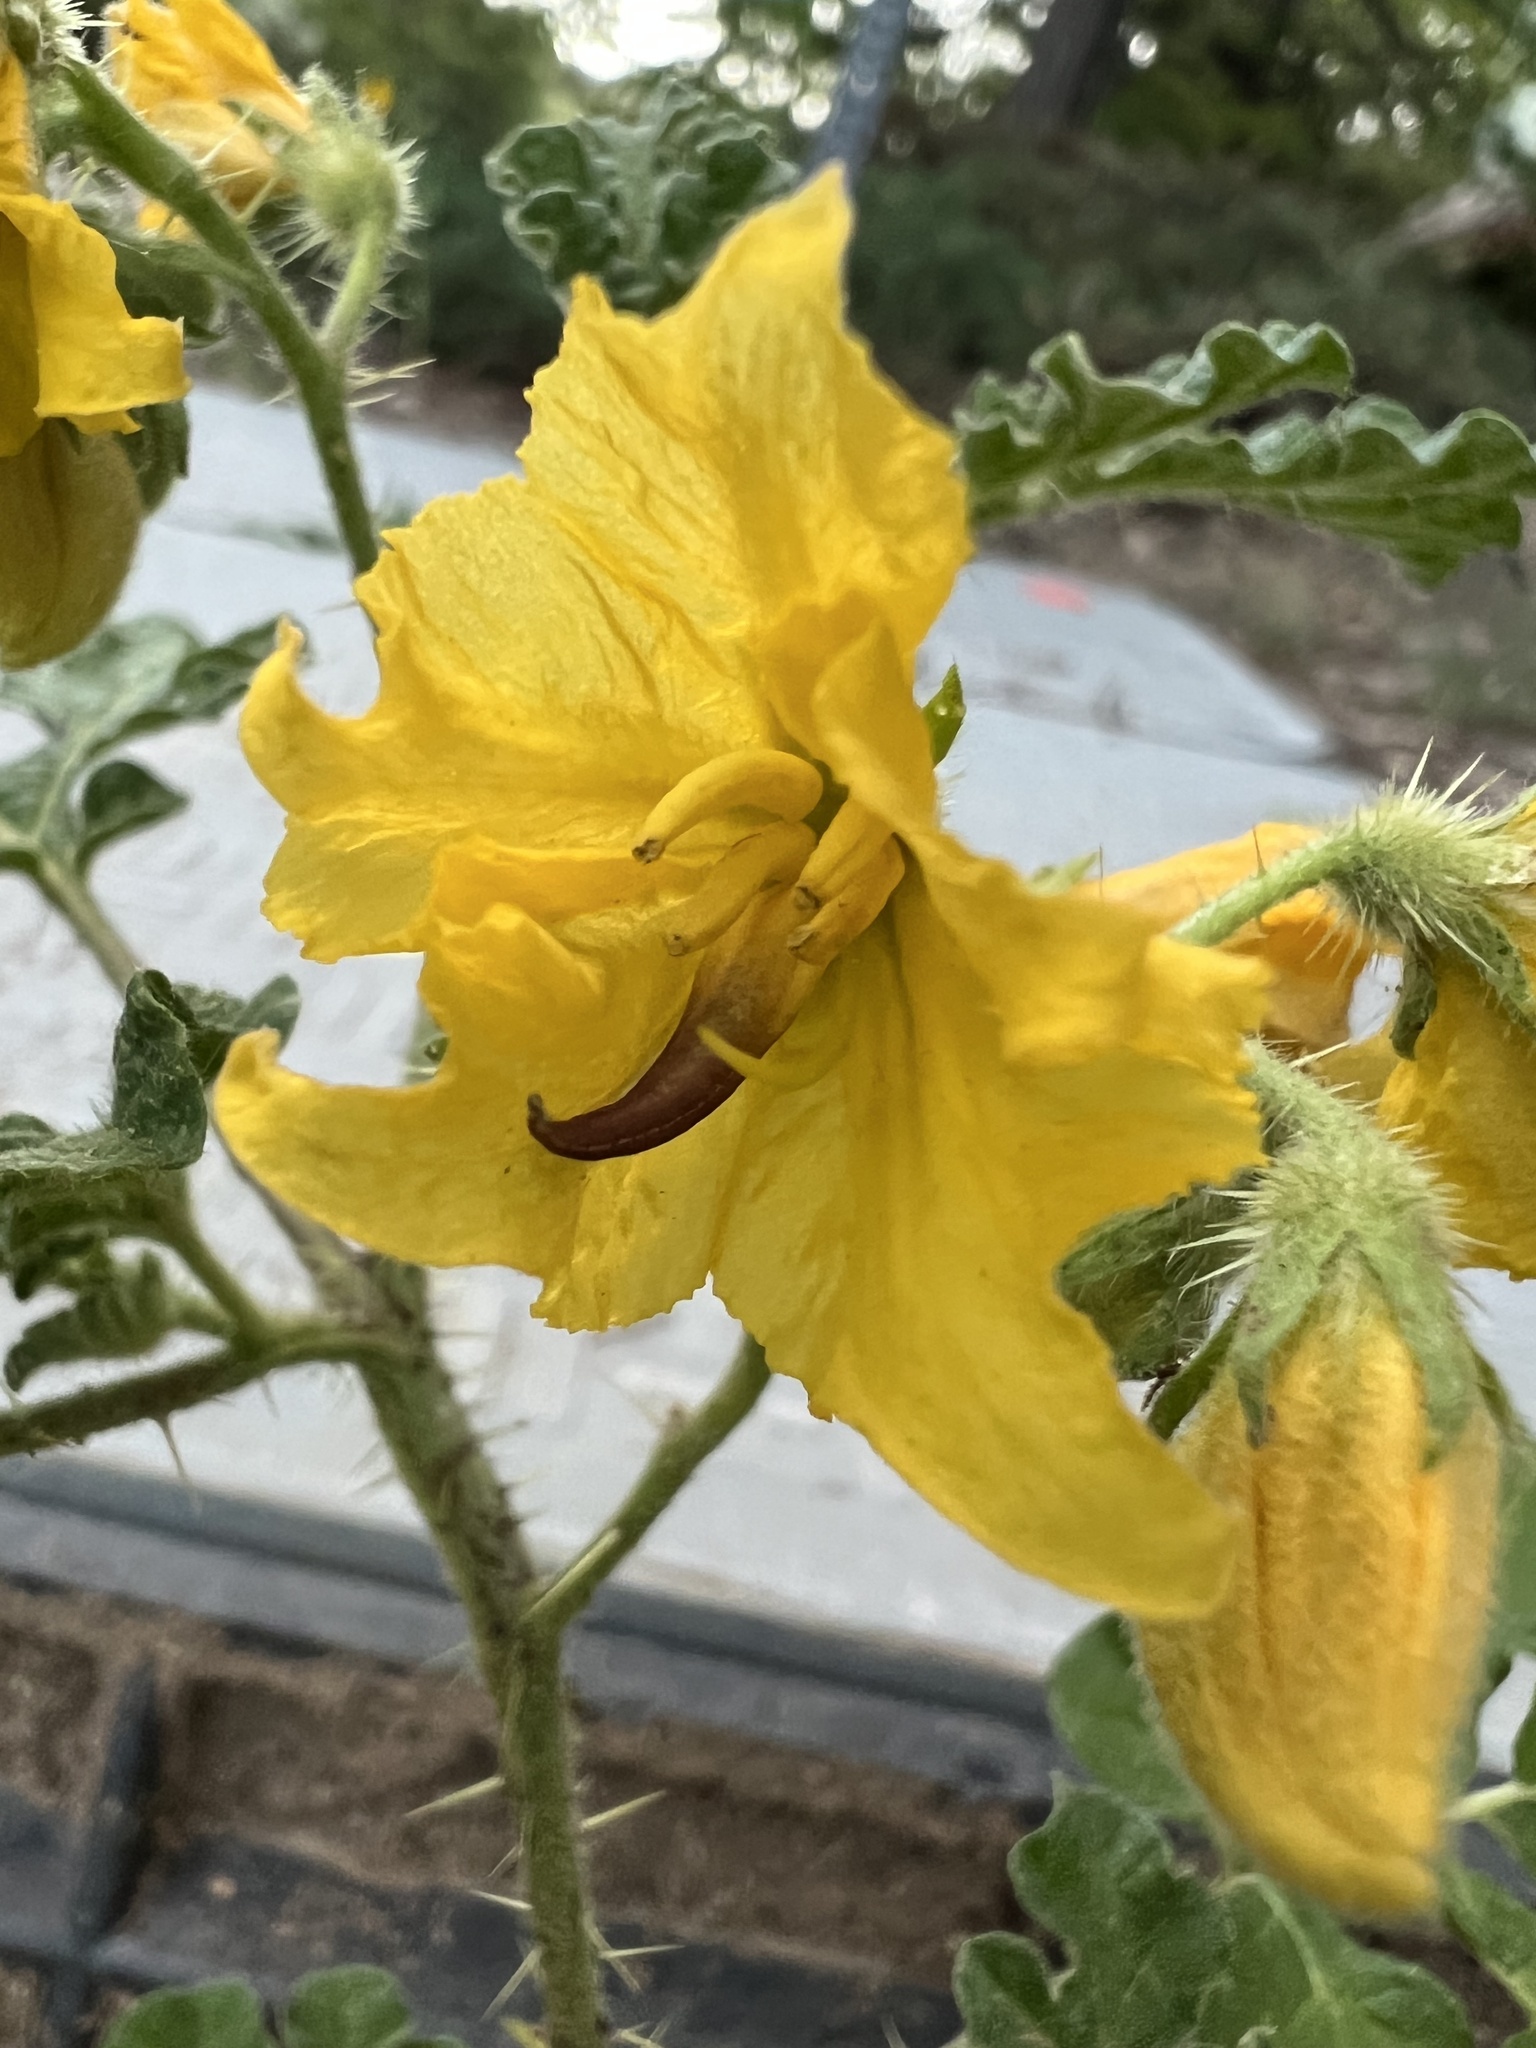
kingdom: Plantae
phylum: Tracheophyta
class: Magnoliopsida
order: Solanales
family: Solanaceae
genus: Solanum
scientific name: Solanum angustifolium
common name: Buffalobur nightshade
